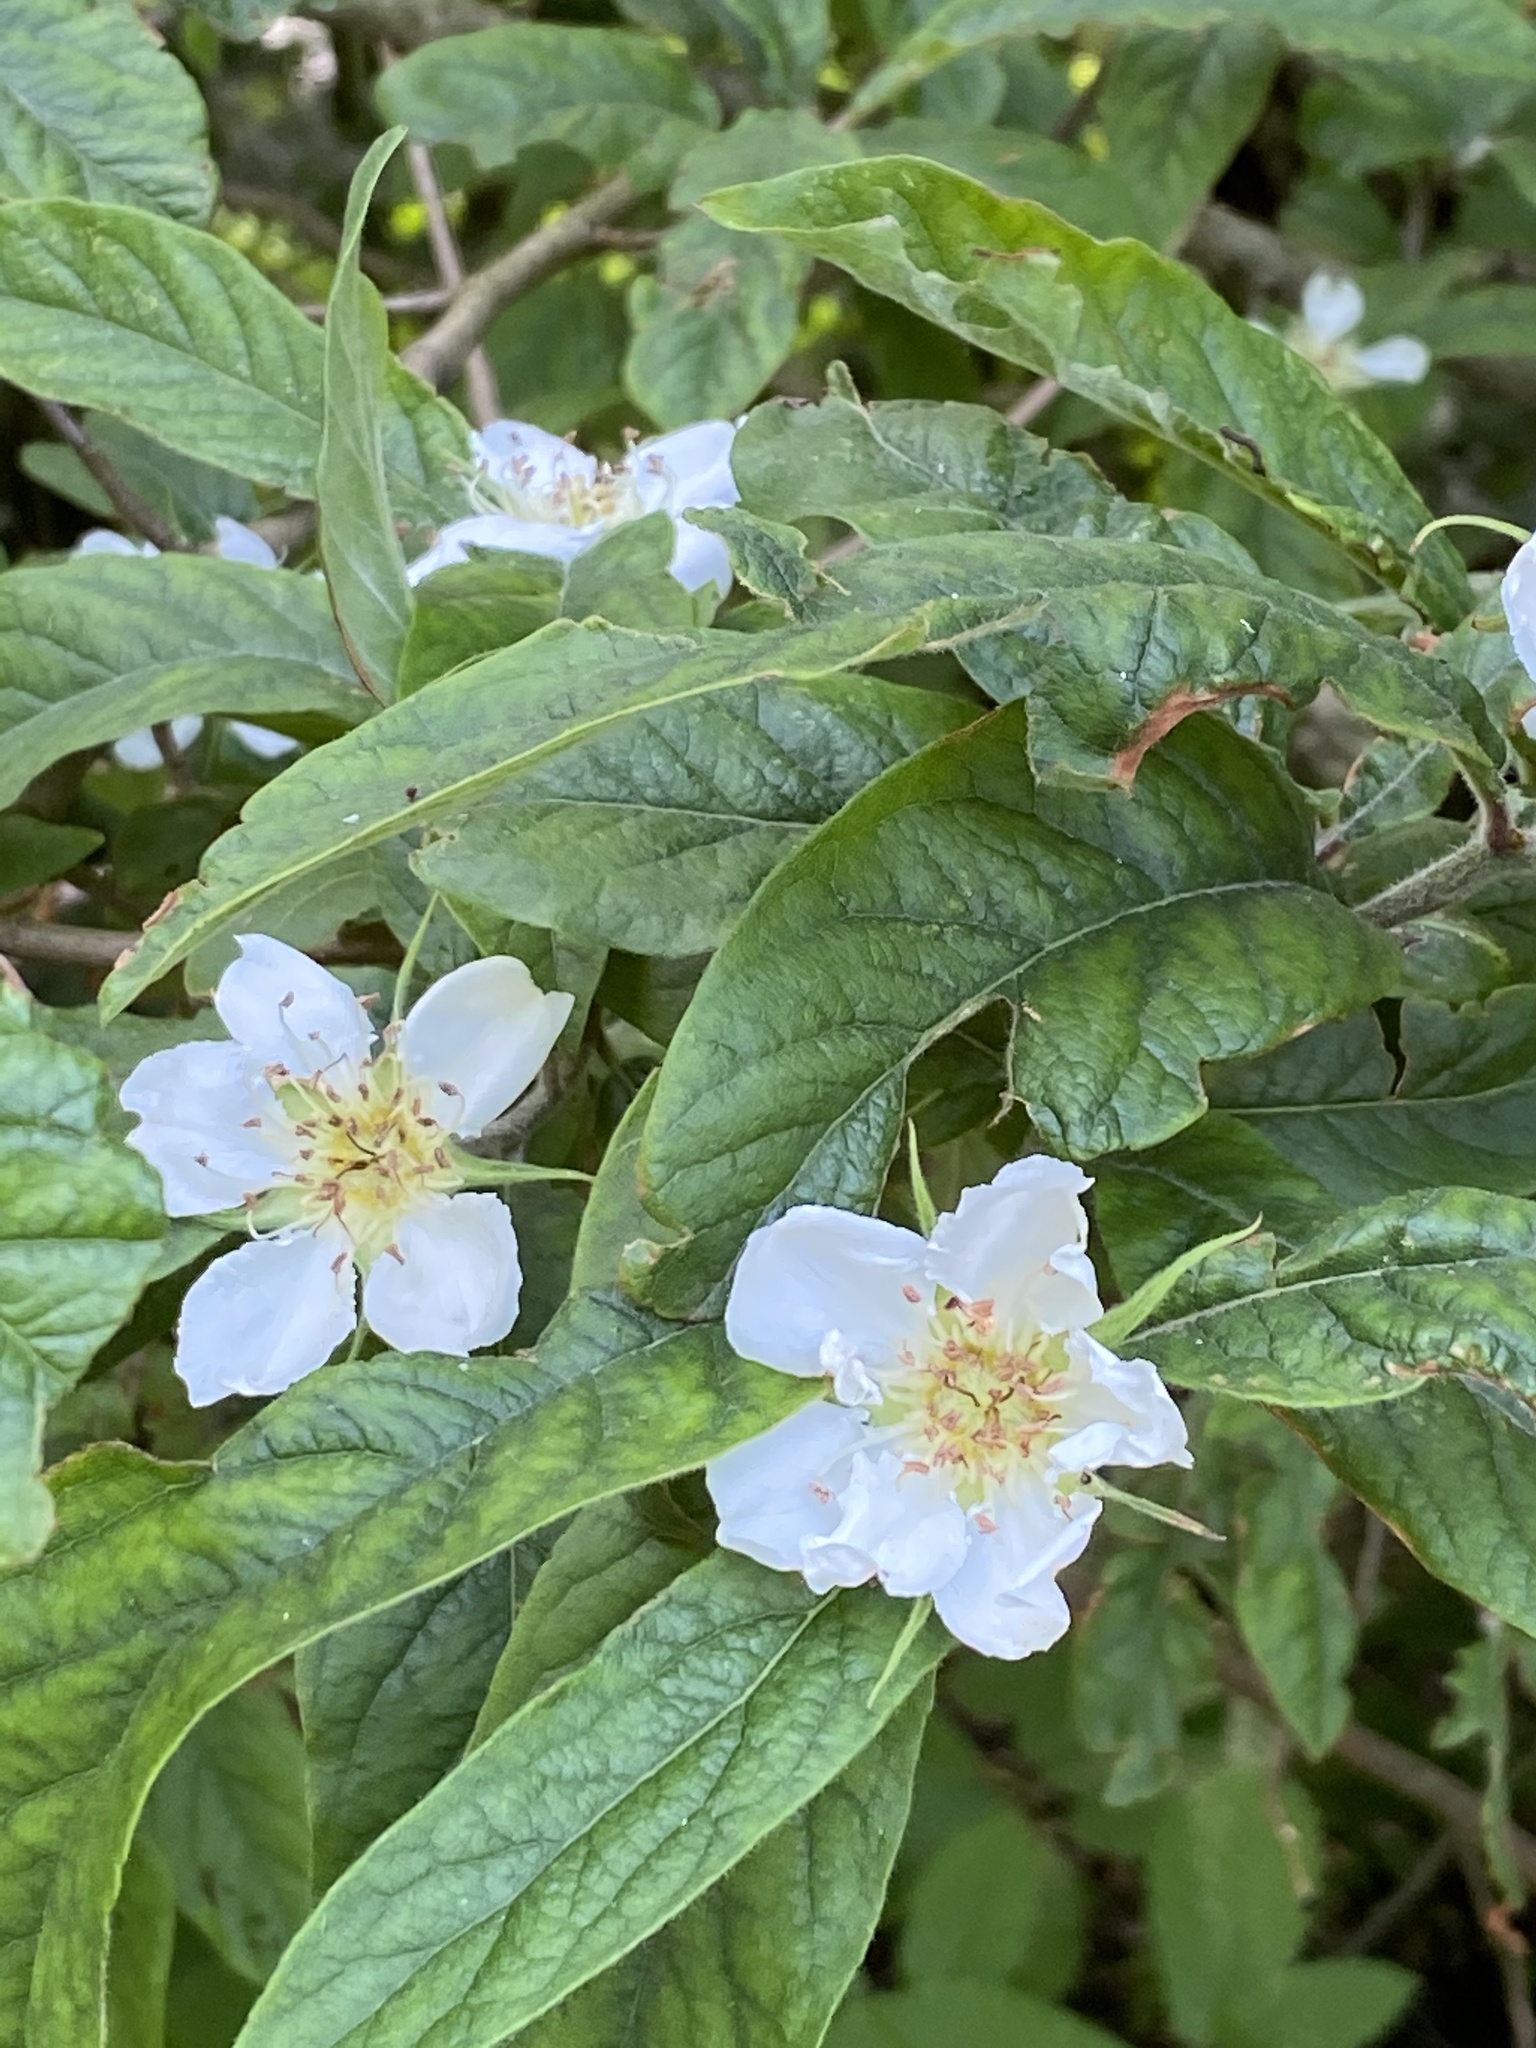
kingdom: Plantae
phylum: Tracheophyta
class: Magnoliopsida
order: Rosales
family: Rosaceae
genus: Mespilus
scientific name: Mespilus germanica
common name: Medlar
